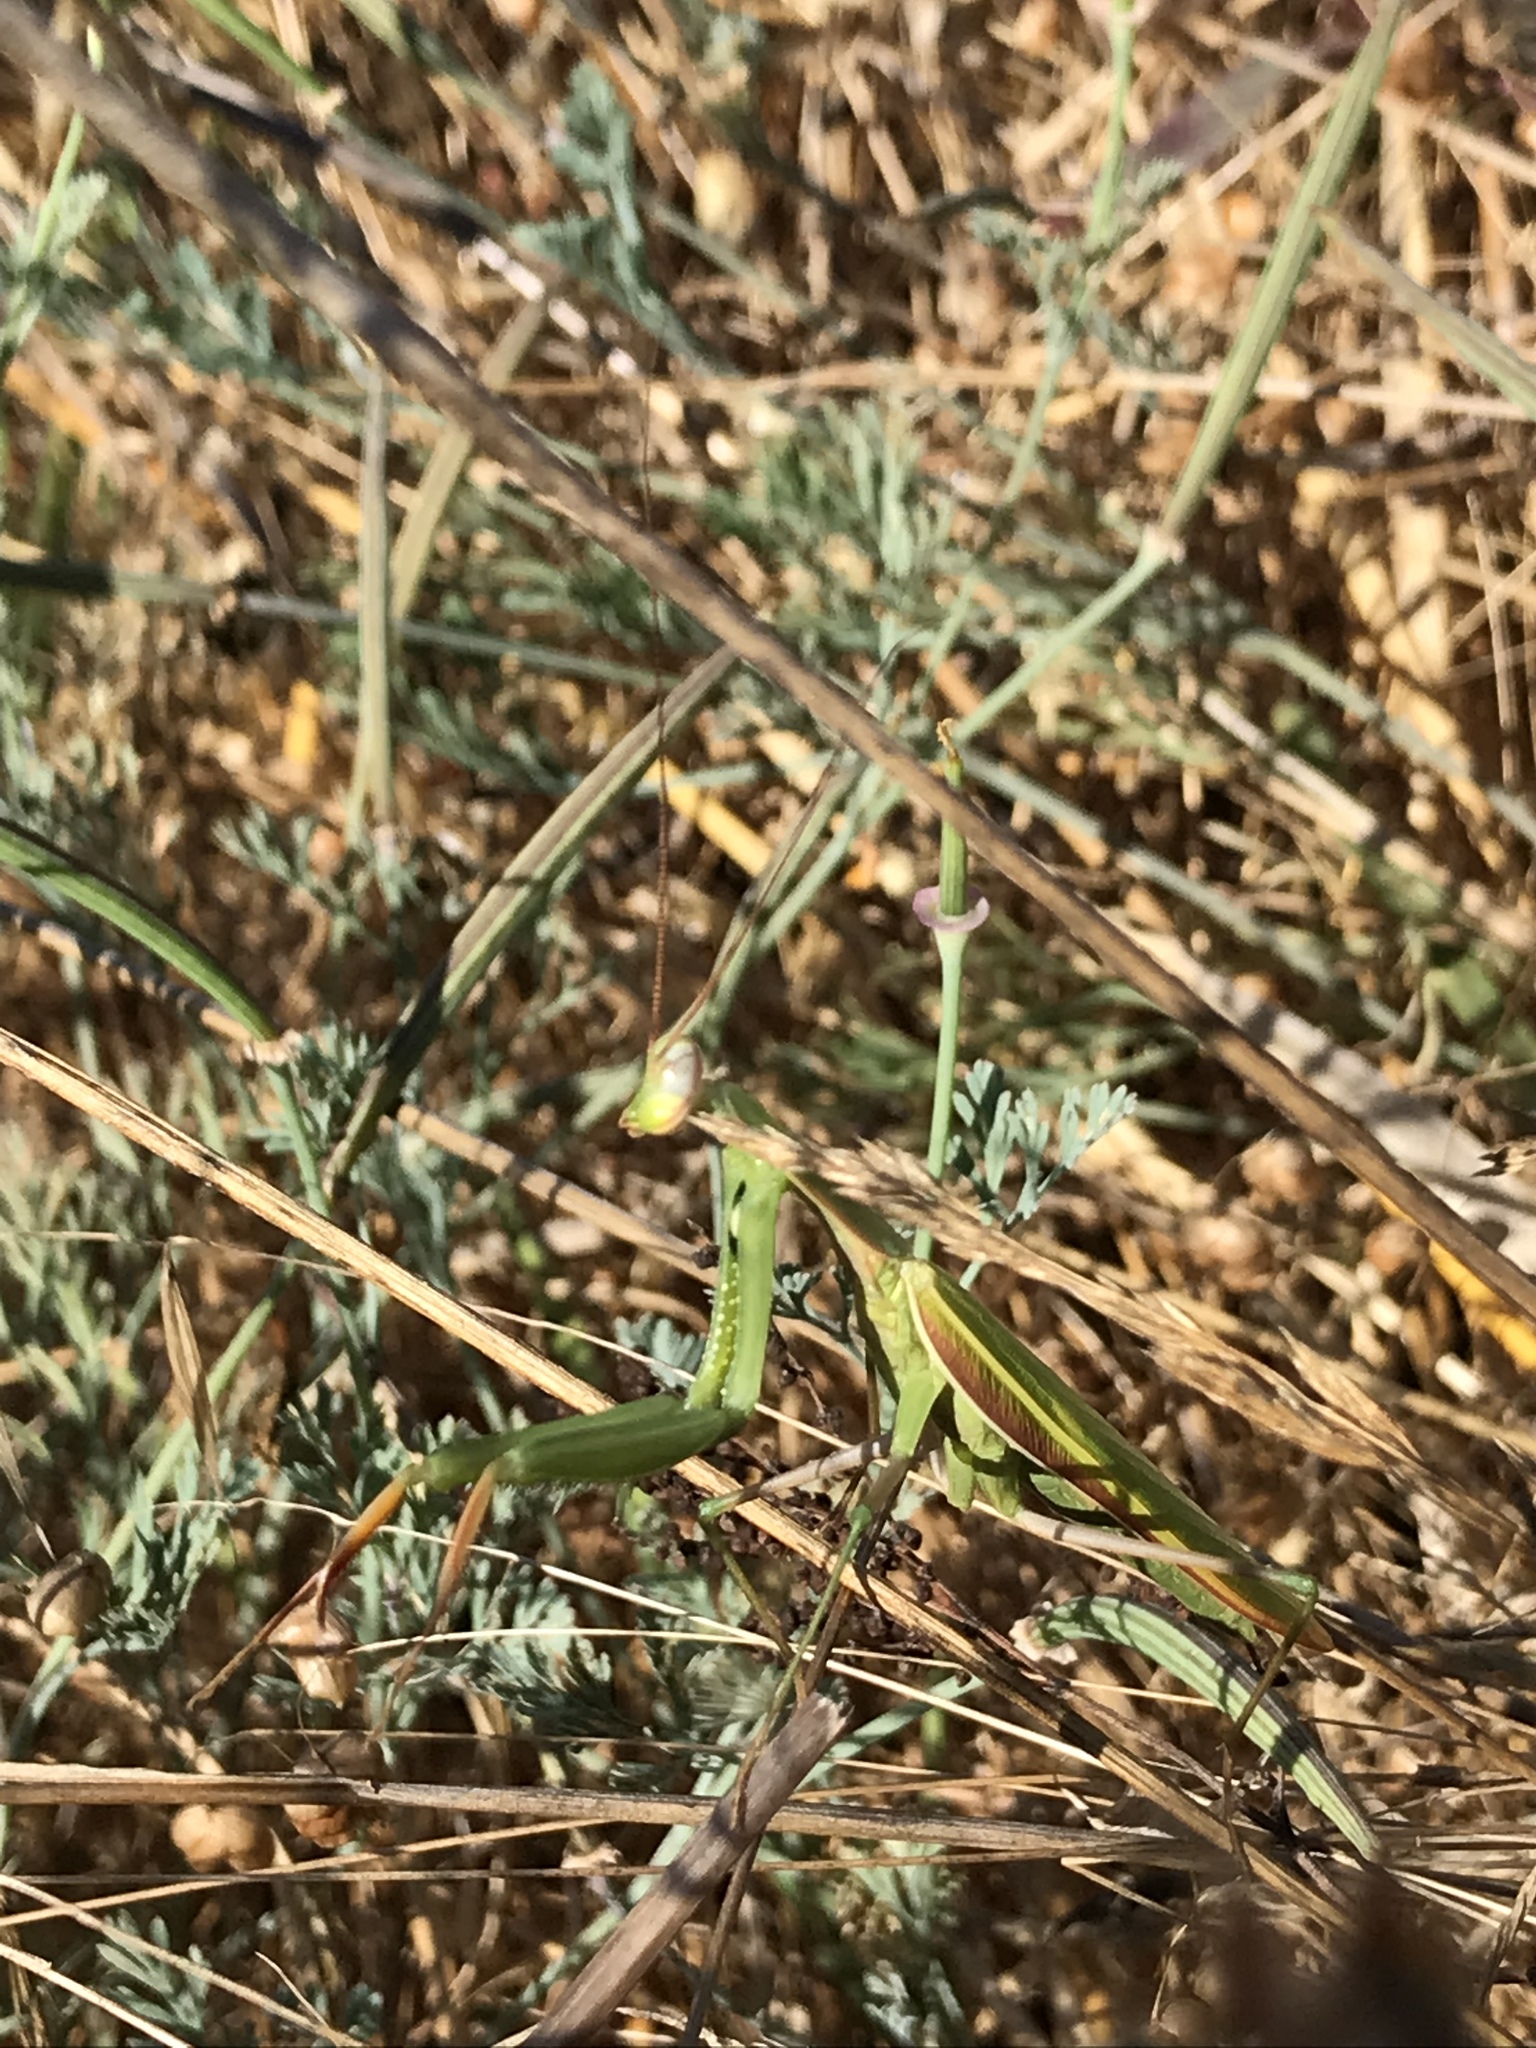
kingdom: Animalia
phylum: Arthropoda
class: Insecta
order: Mantodea
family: Mantidae
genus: Mantis
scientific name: Mantis religiosa
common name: Praying mantis
